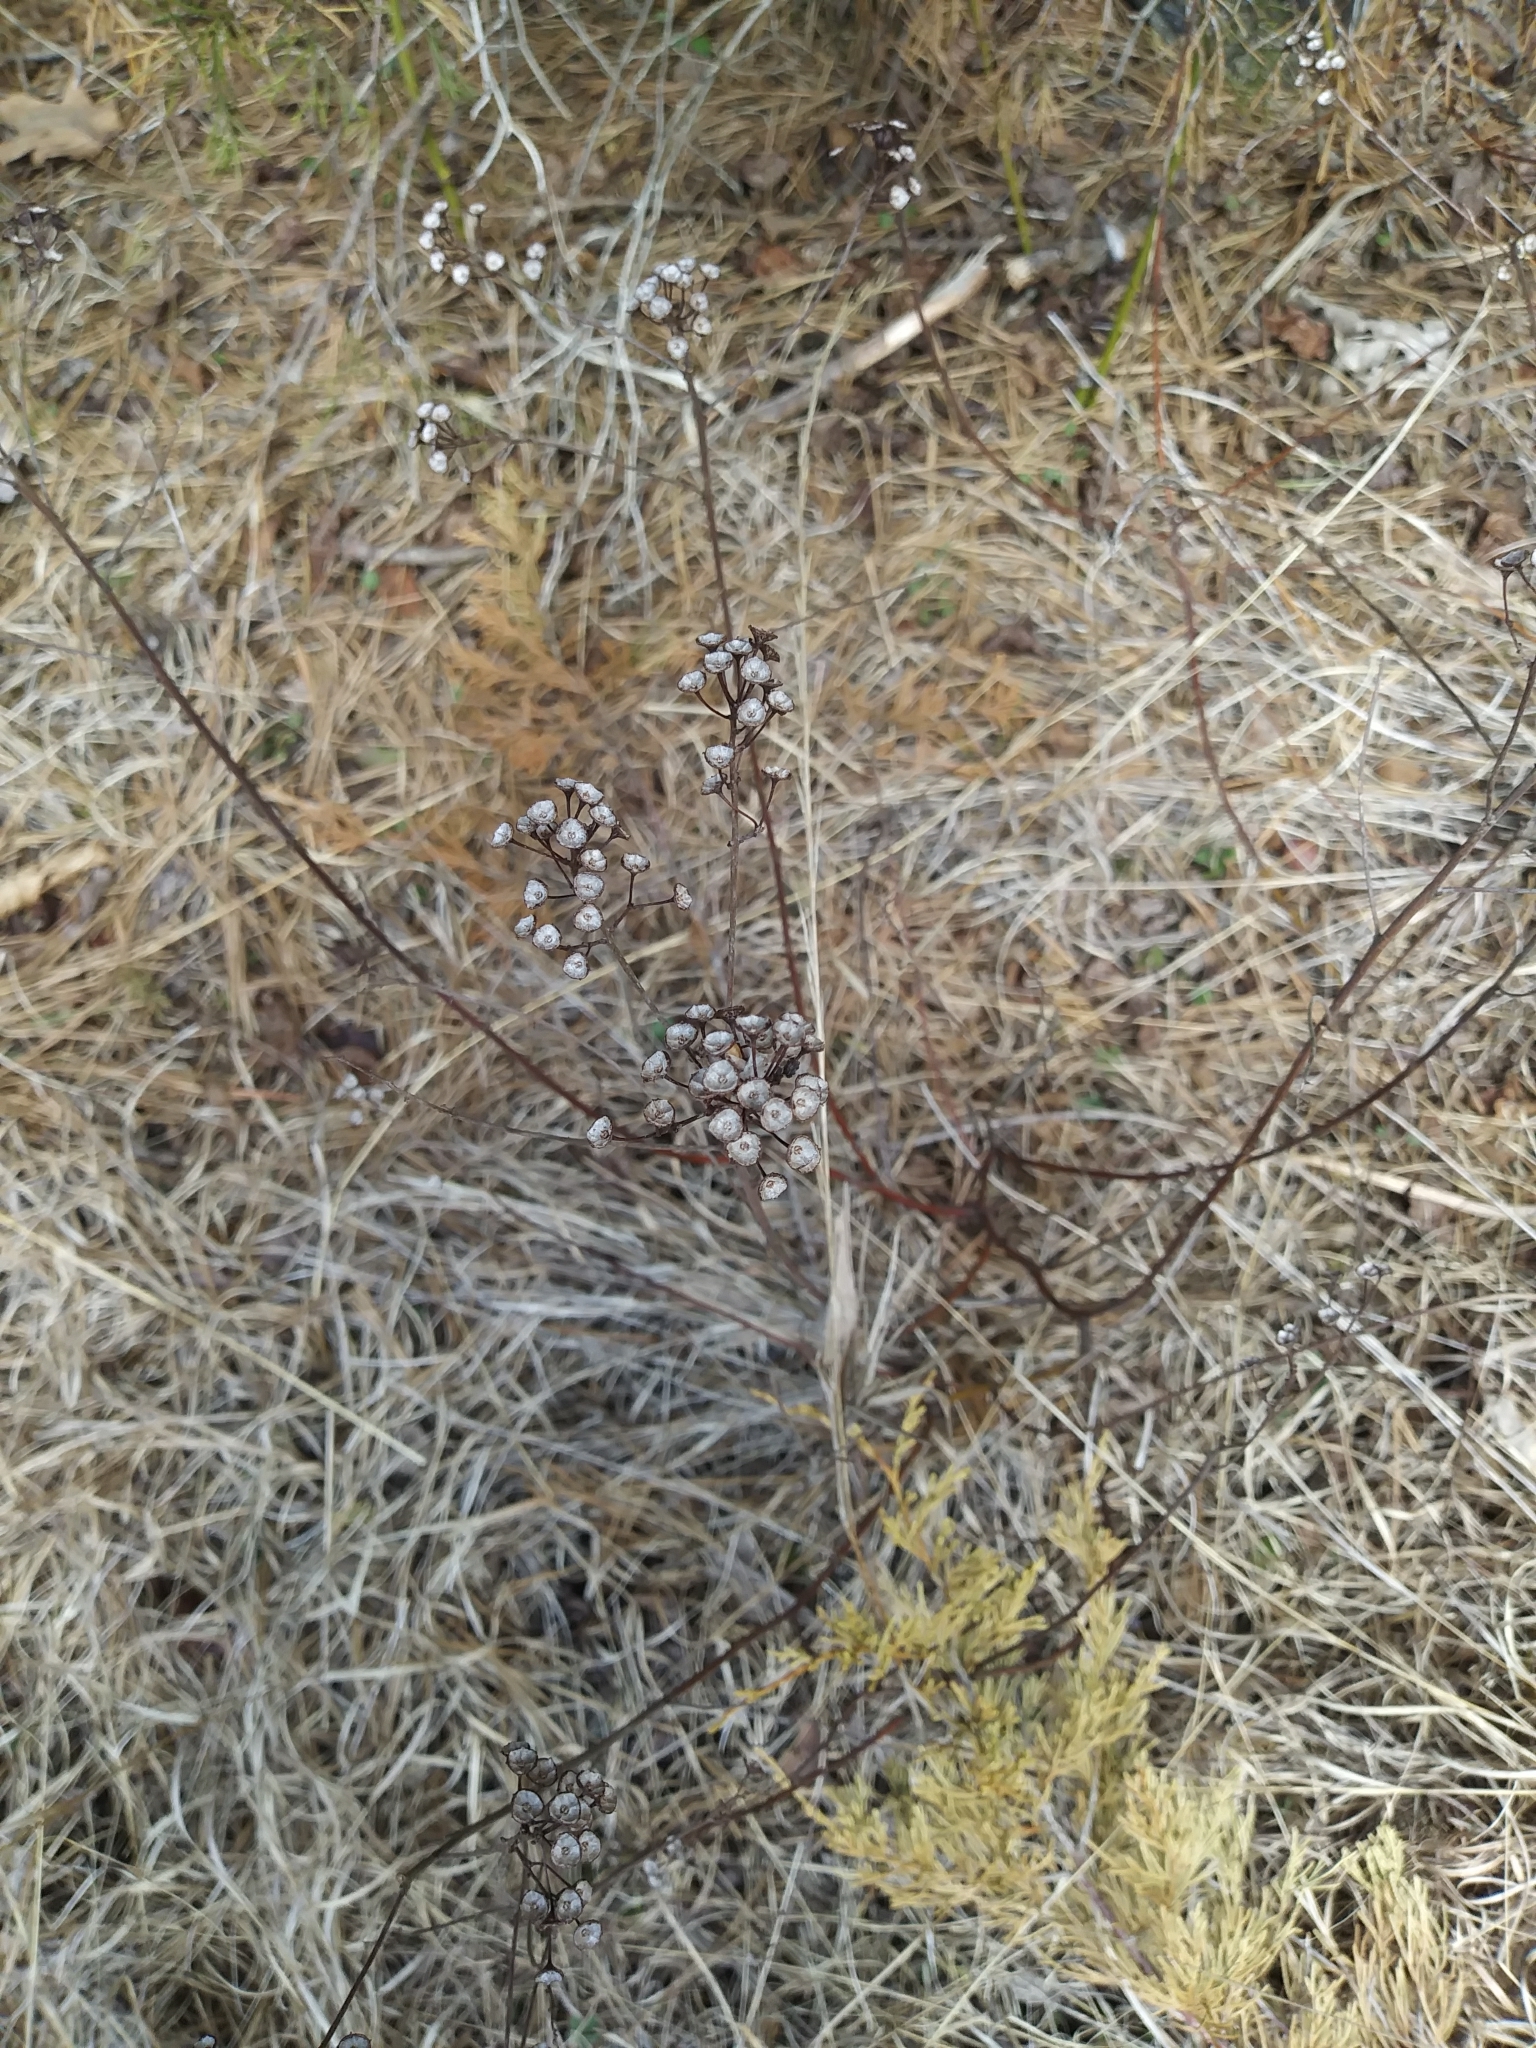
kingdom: Plantae
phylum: Tracheophyta
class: Magnoliopsida
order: Rosales
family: Rhamnaceae
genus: Ceanothus
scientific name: Ceanothus americanus
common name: Redroot
